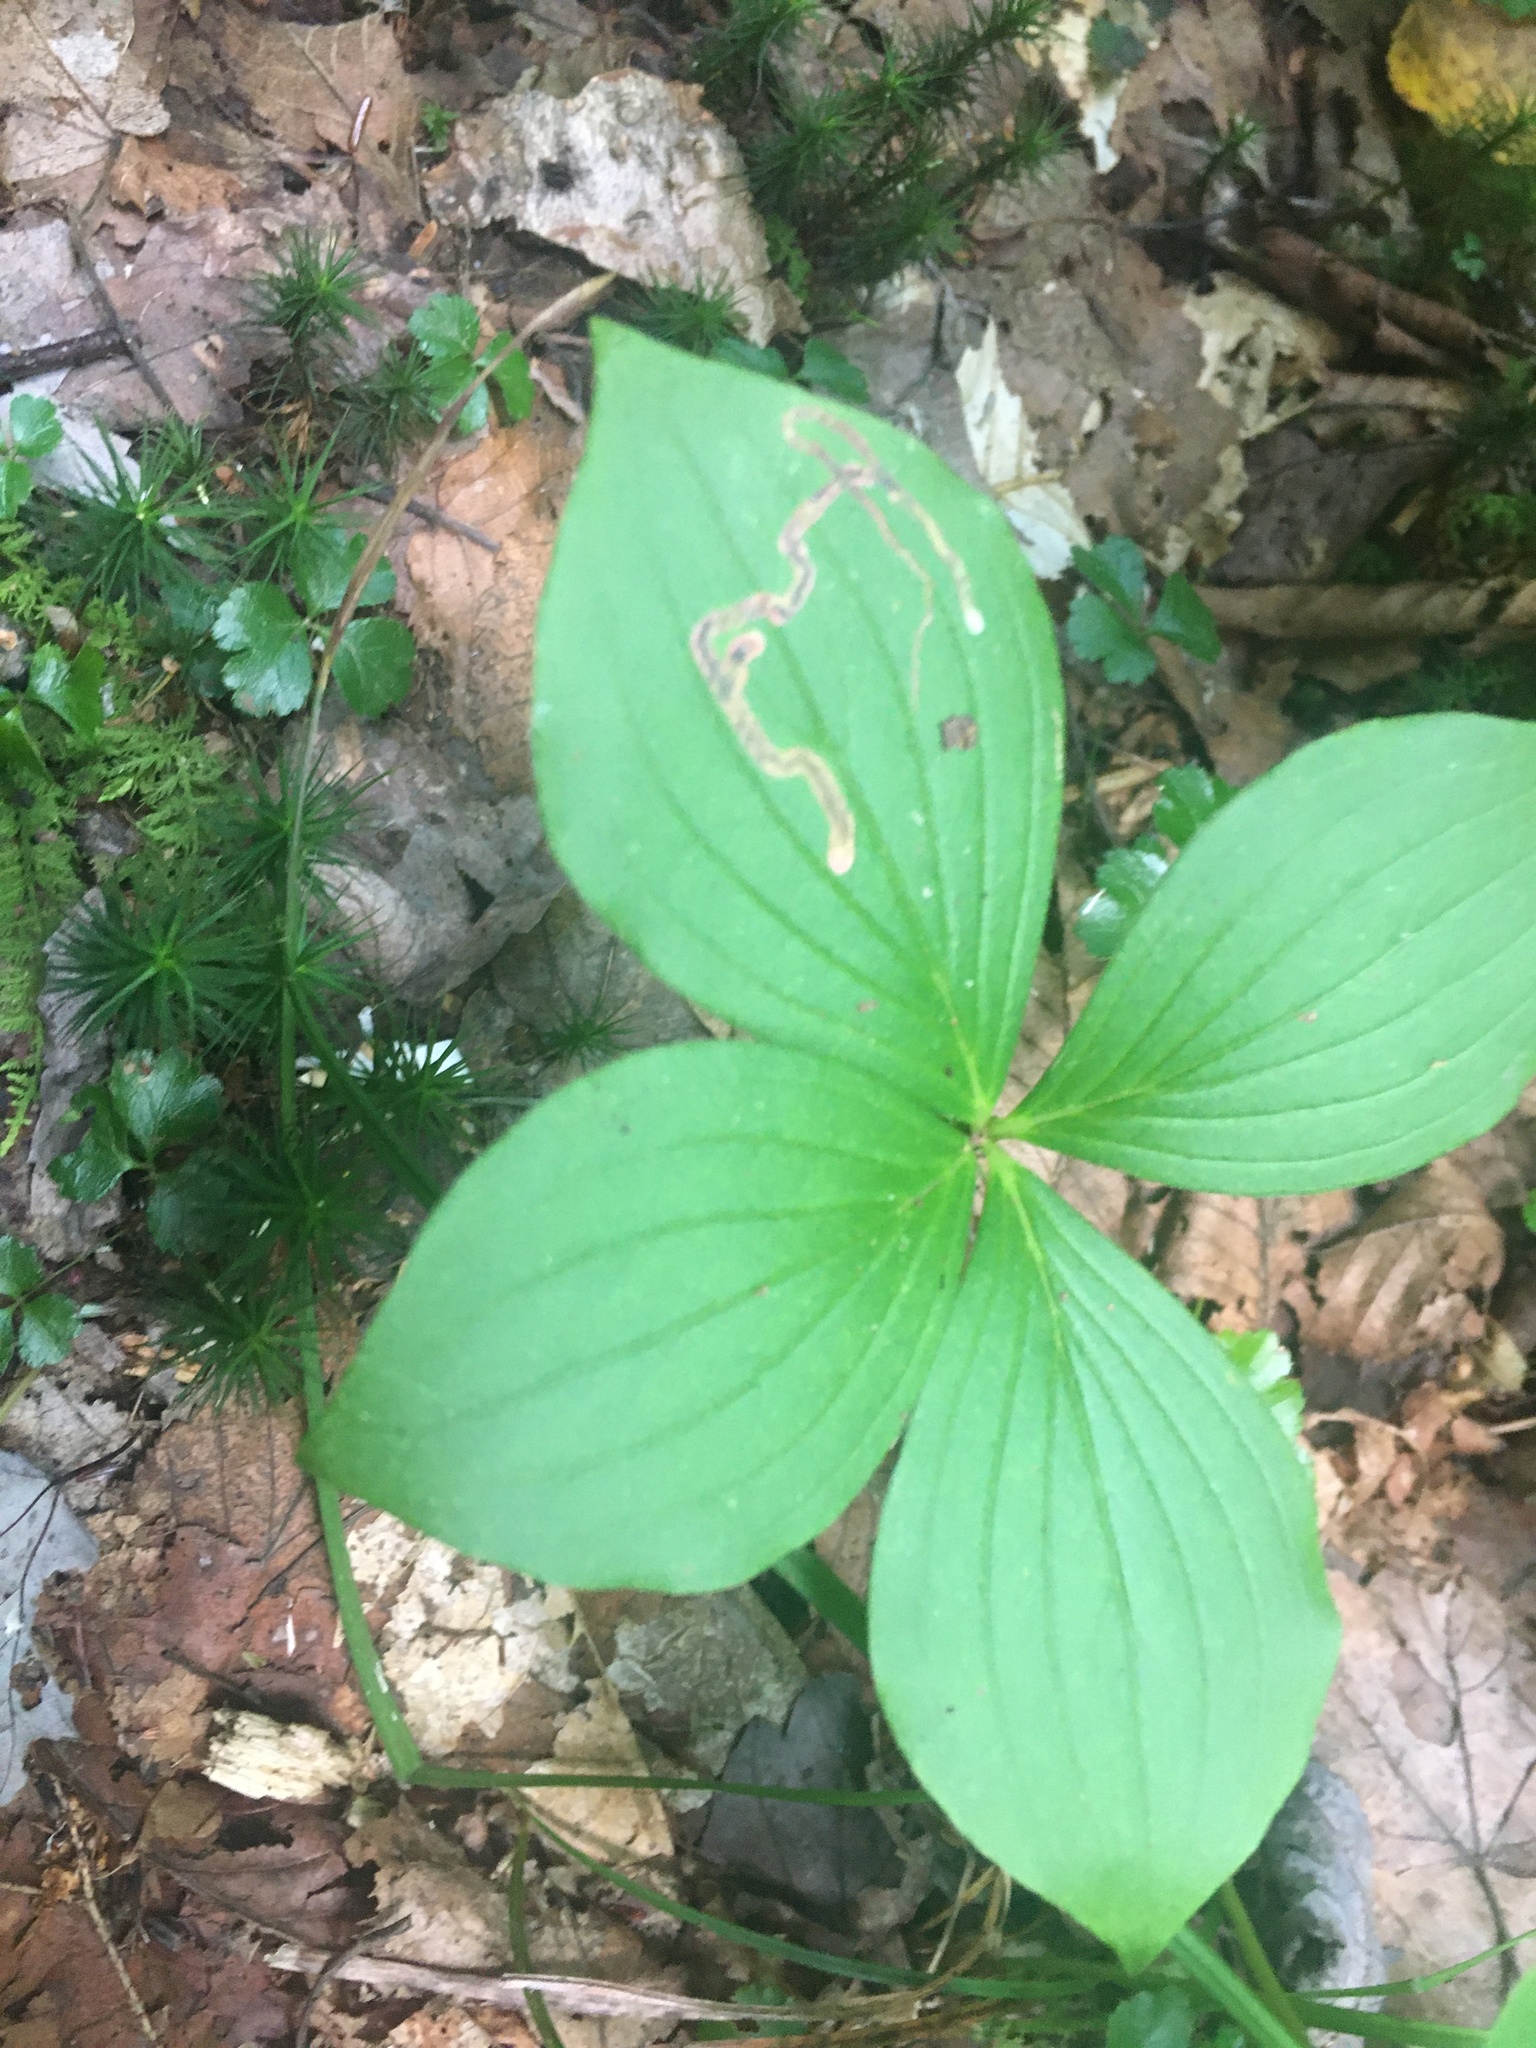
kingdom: Plantae
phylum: Tracheophyta
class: Magnoliopsida
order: Cornales
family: Cornaceae
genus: Cornus
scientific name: Cornus canadensis
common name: Creeping dogwood
